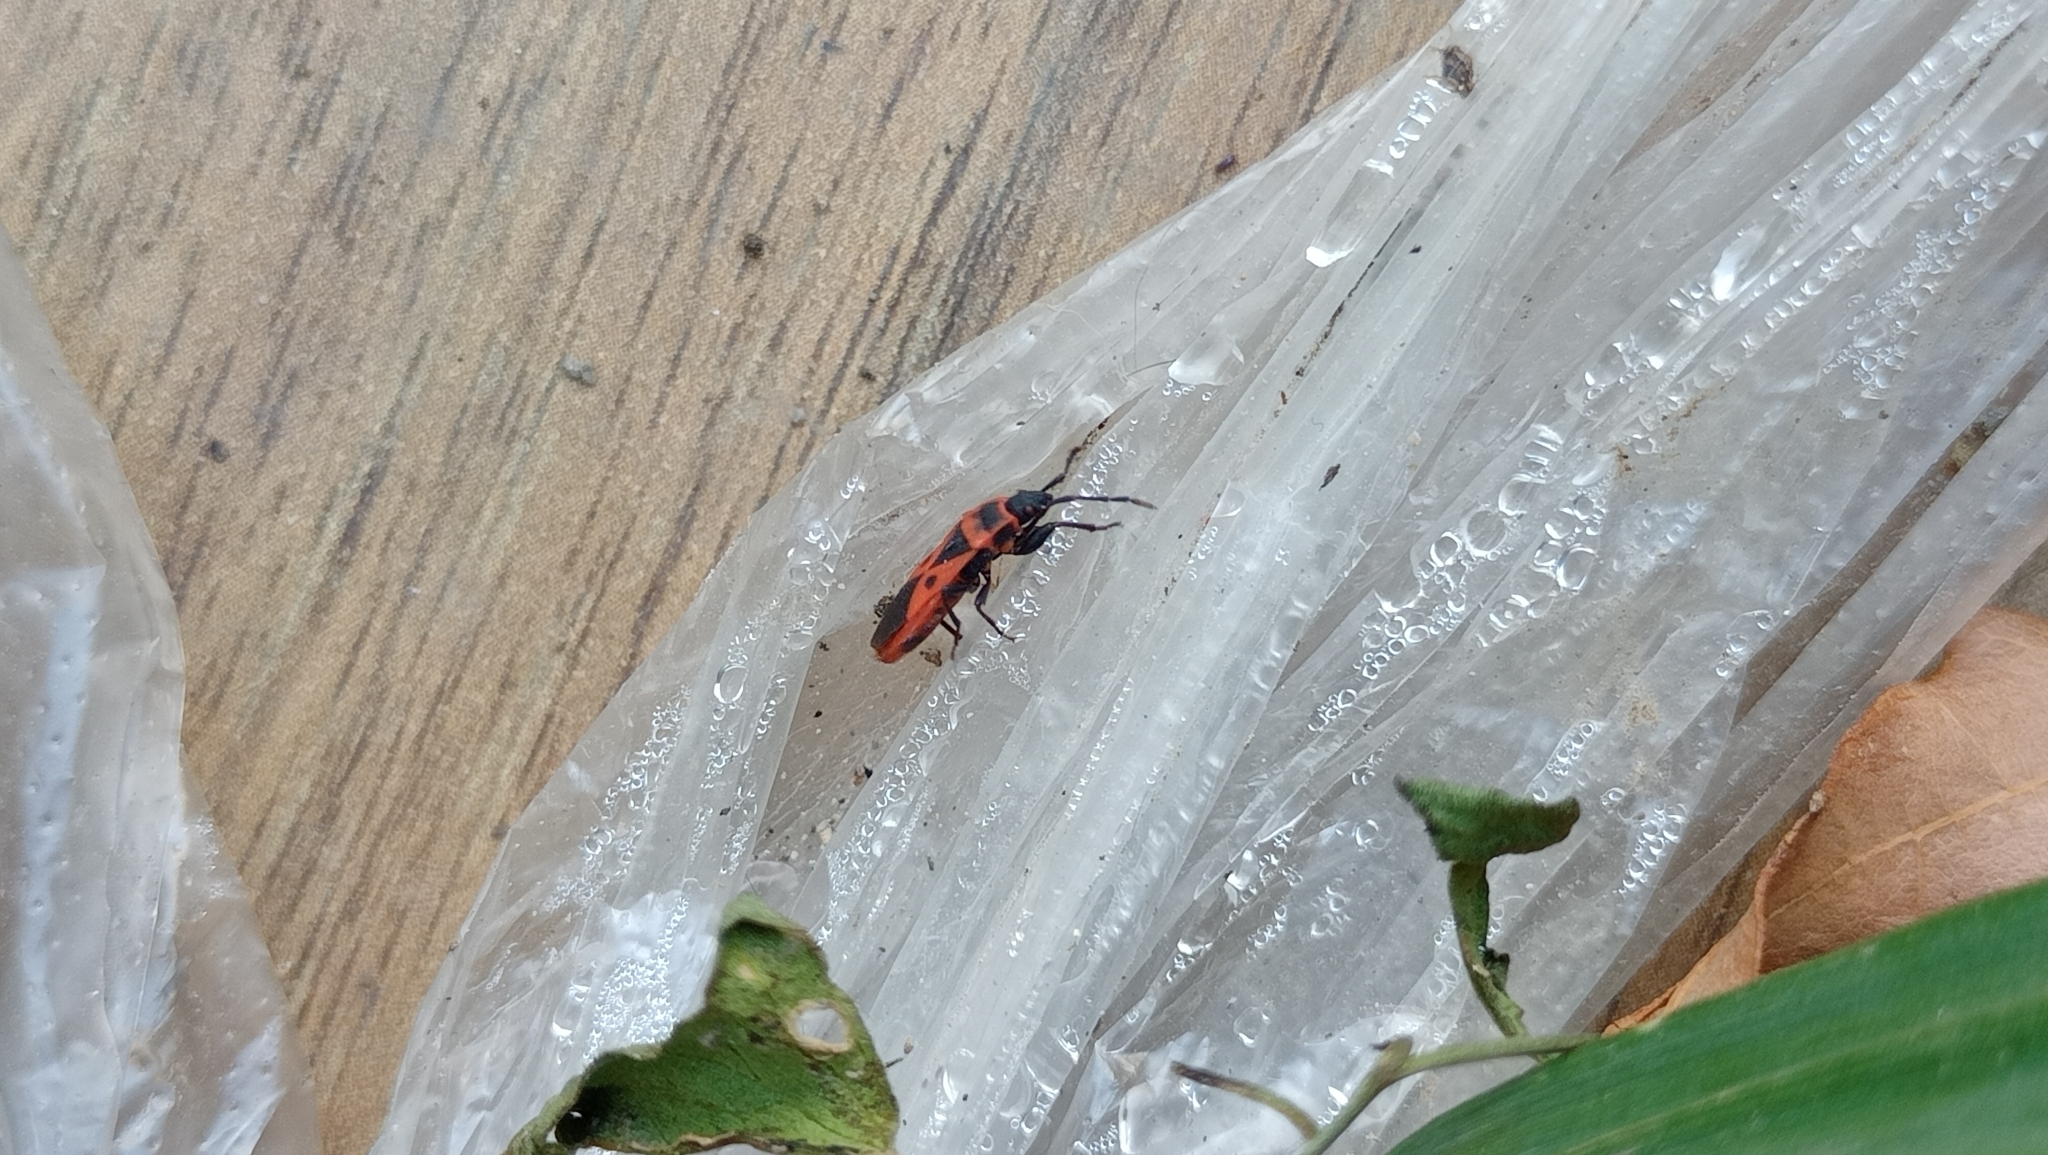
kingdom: Animalia
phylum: Arthropoda
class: Insecta
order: Hemiptera
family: Pyrrhocoridae
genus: Scantius
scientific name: Scantius aegyptius
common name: Red bug
